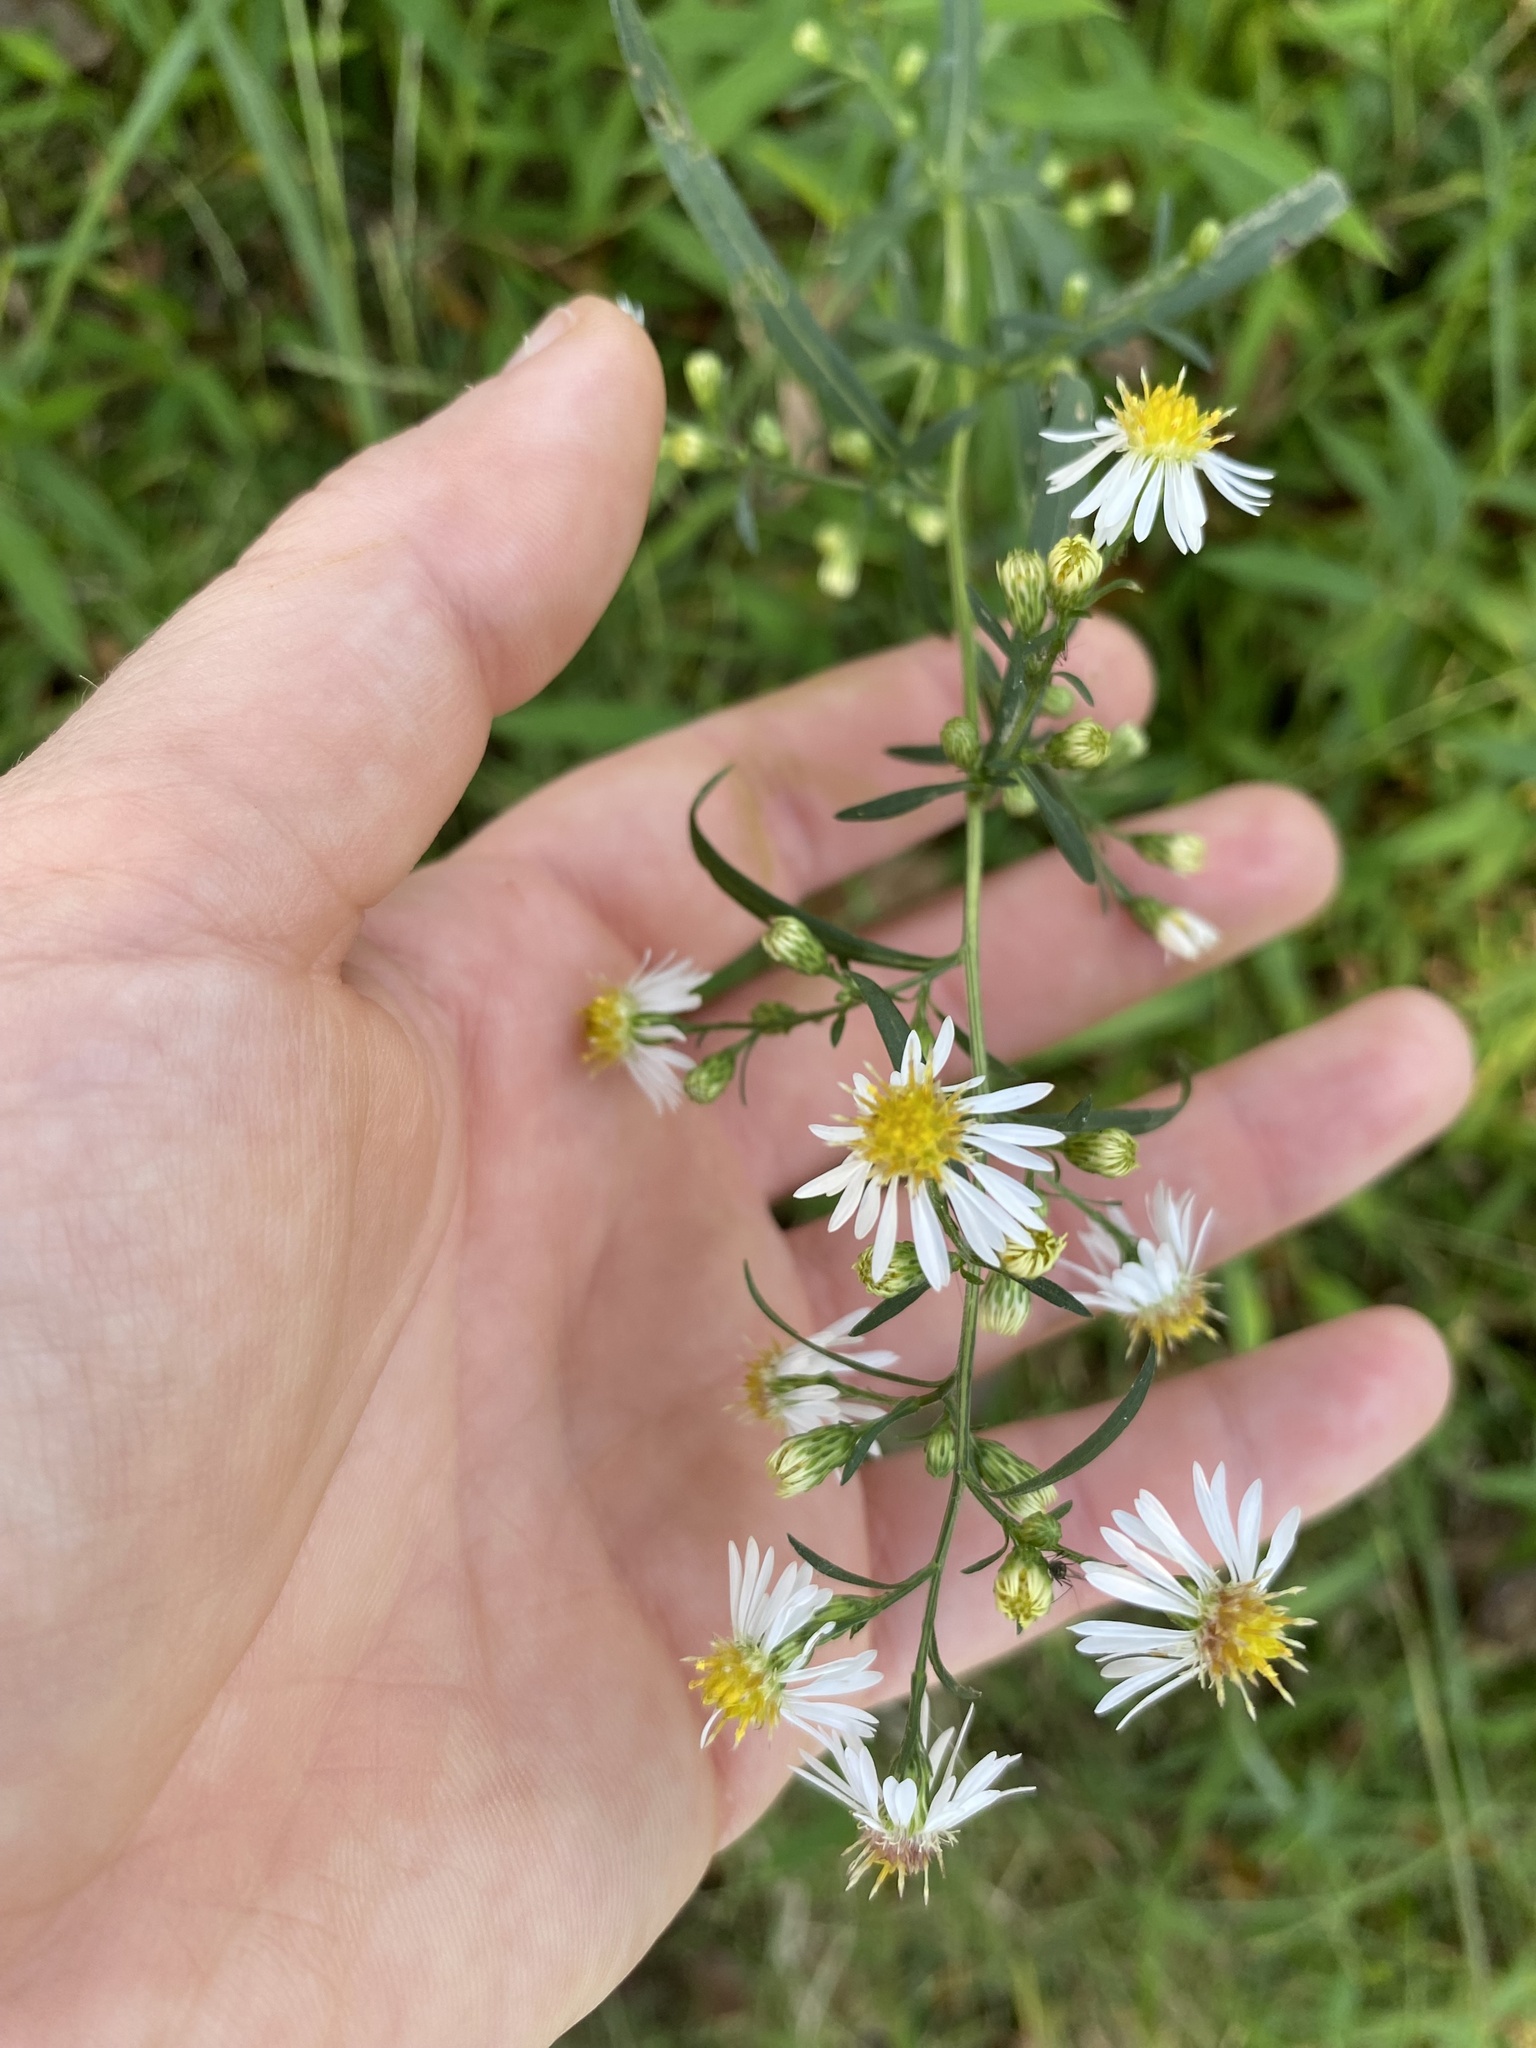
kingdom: Plantae
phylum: Tracheophyta
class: Magnoliopsida
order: Asterales
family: Asteraceae
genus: Symphyotrichum
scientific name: Symphyotrichum pilosum
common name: Awl aster
